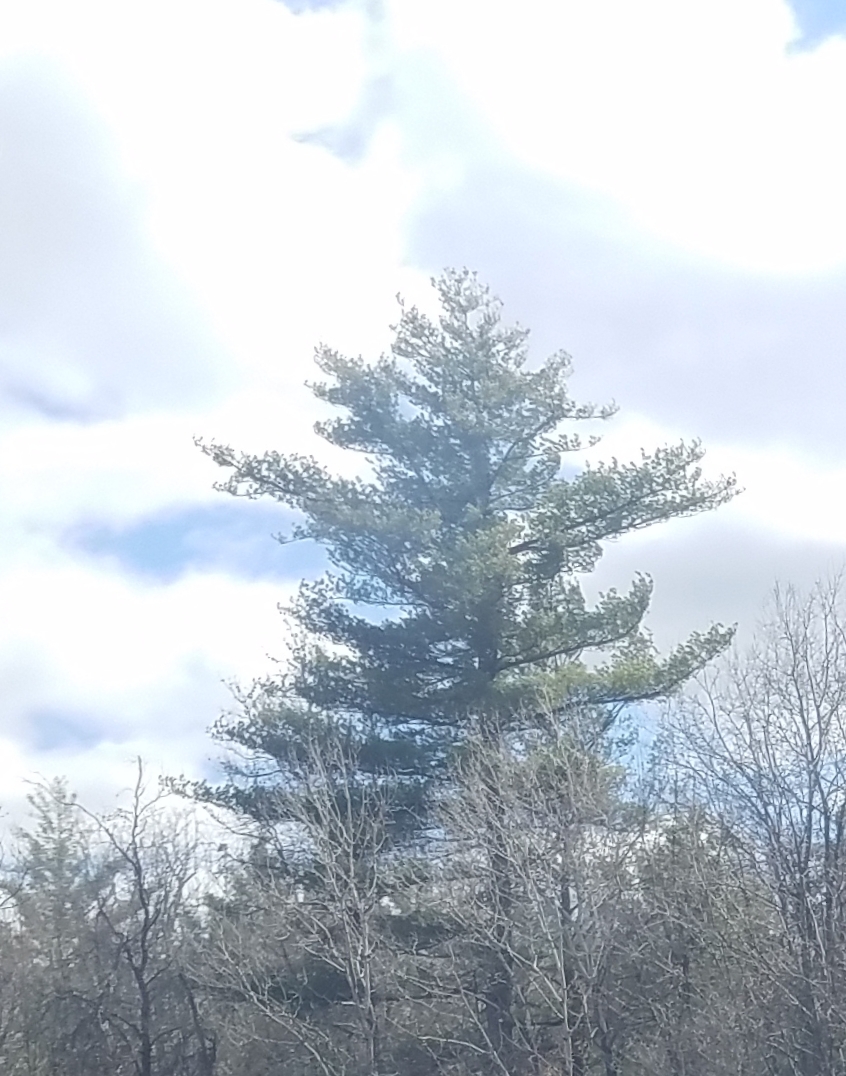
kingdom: Plantae
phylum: Tracheophyta
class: Pinopsida
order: Pinales
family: Pinaceae
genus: Pinus
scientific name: Pinus strobus
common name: Weymouth pine
